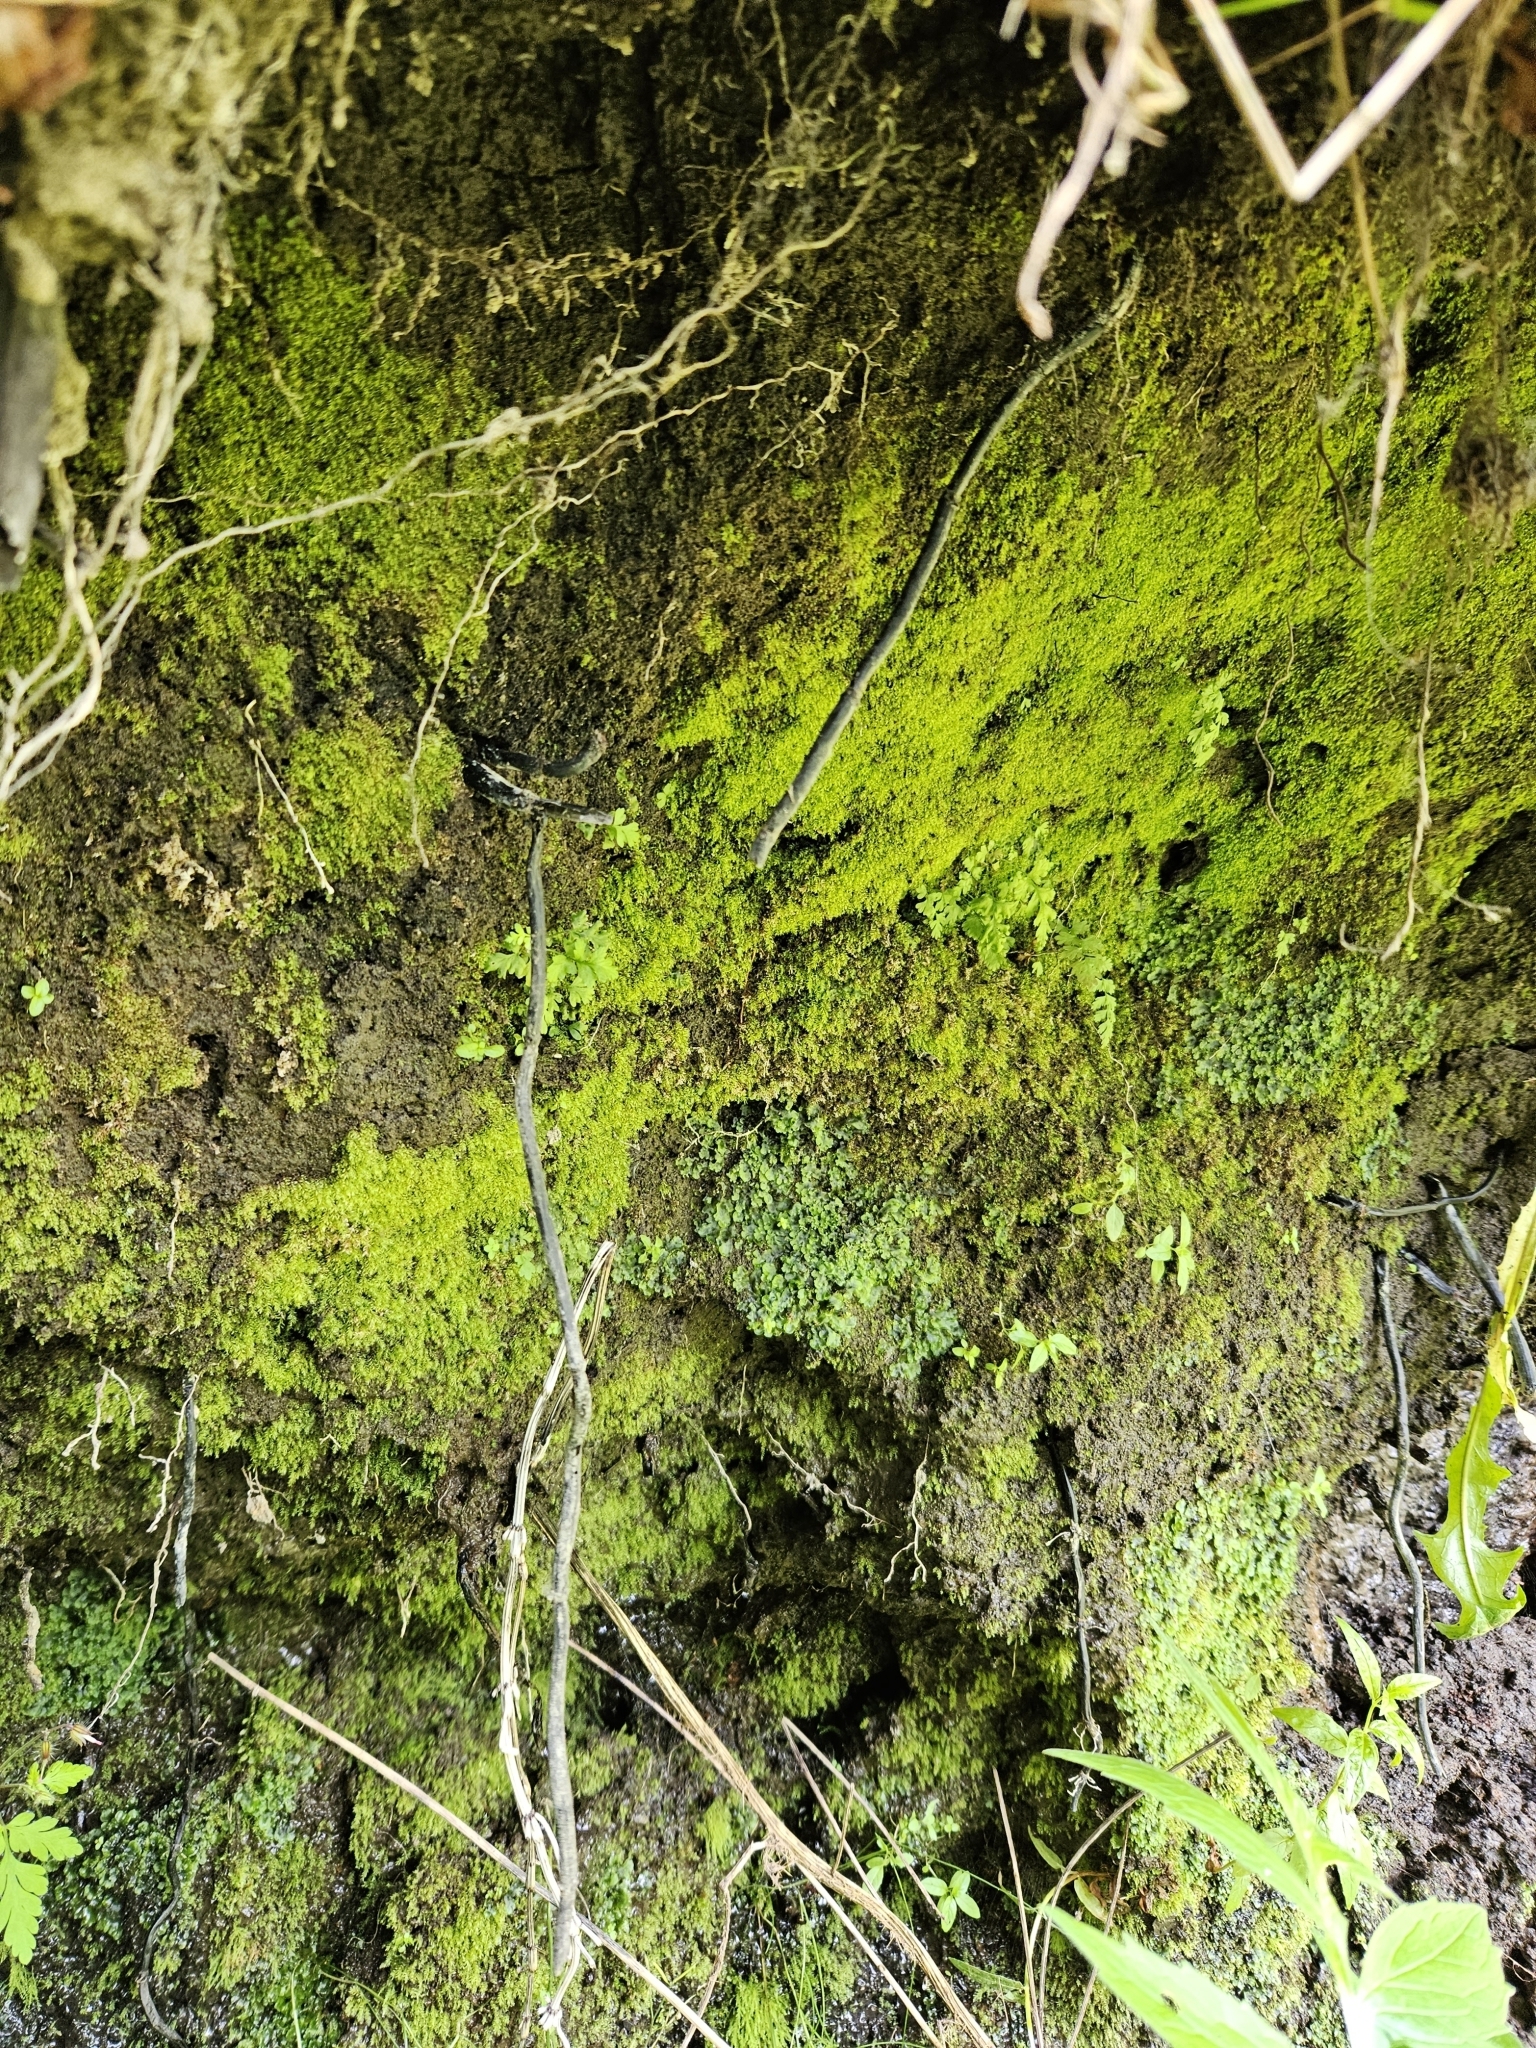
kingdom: Plantae
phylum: Bryophyta
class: Bryopsida
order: Bryales
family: Mniaceae
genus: Pohlia
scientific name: Pohlia melanodon
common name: Black-toothed nodding moss
